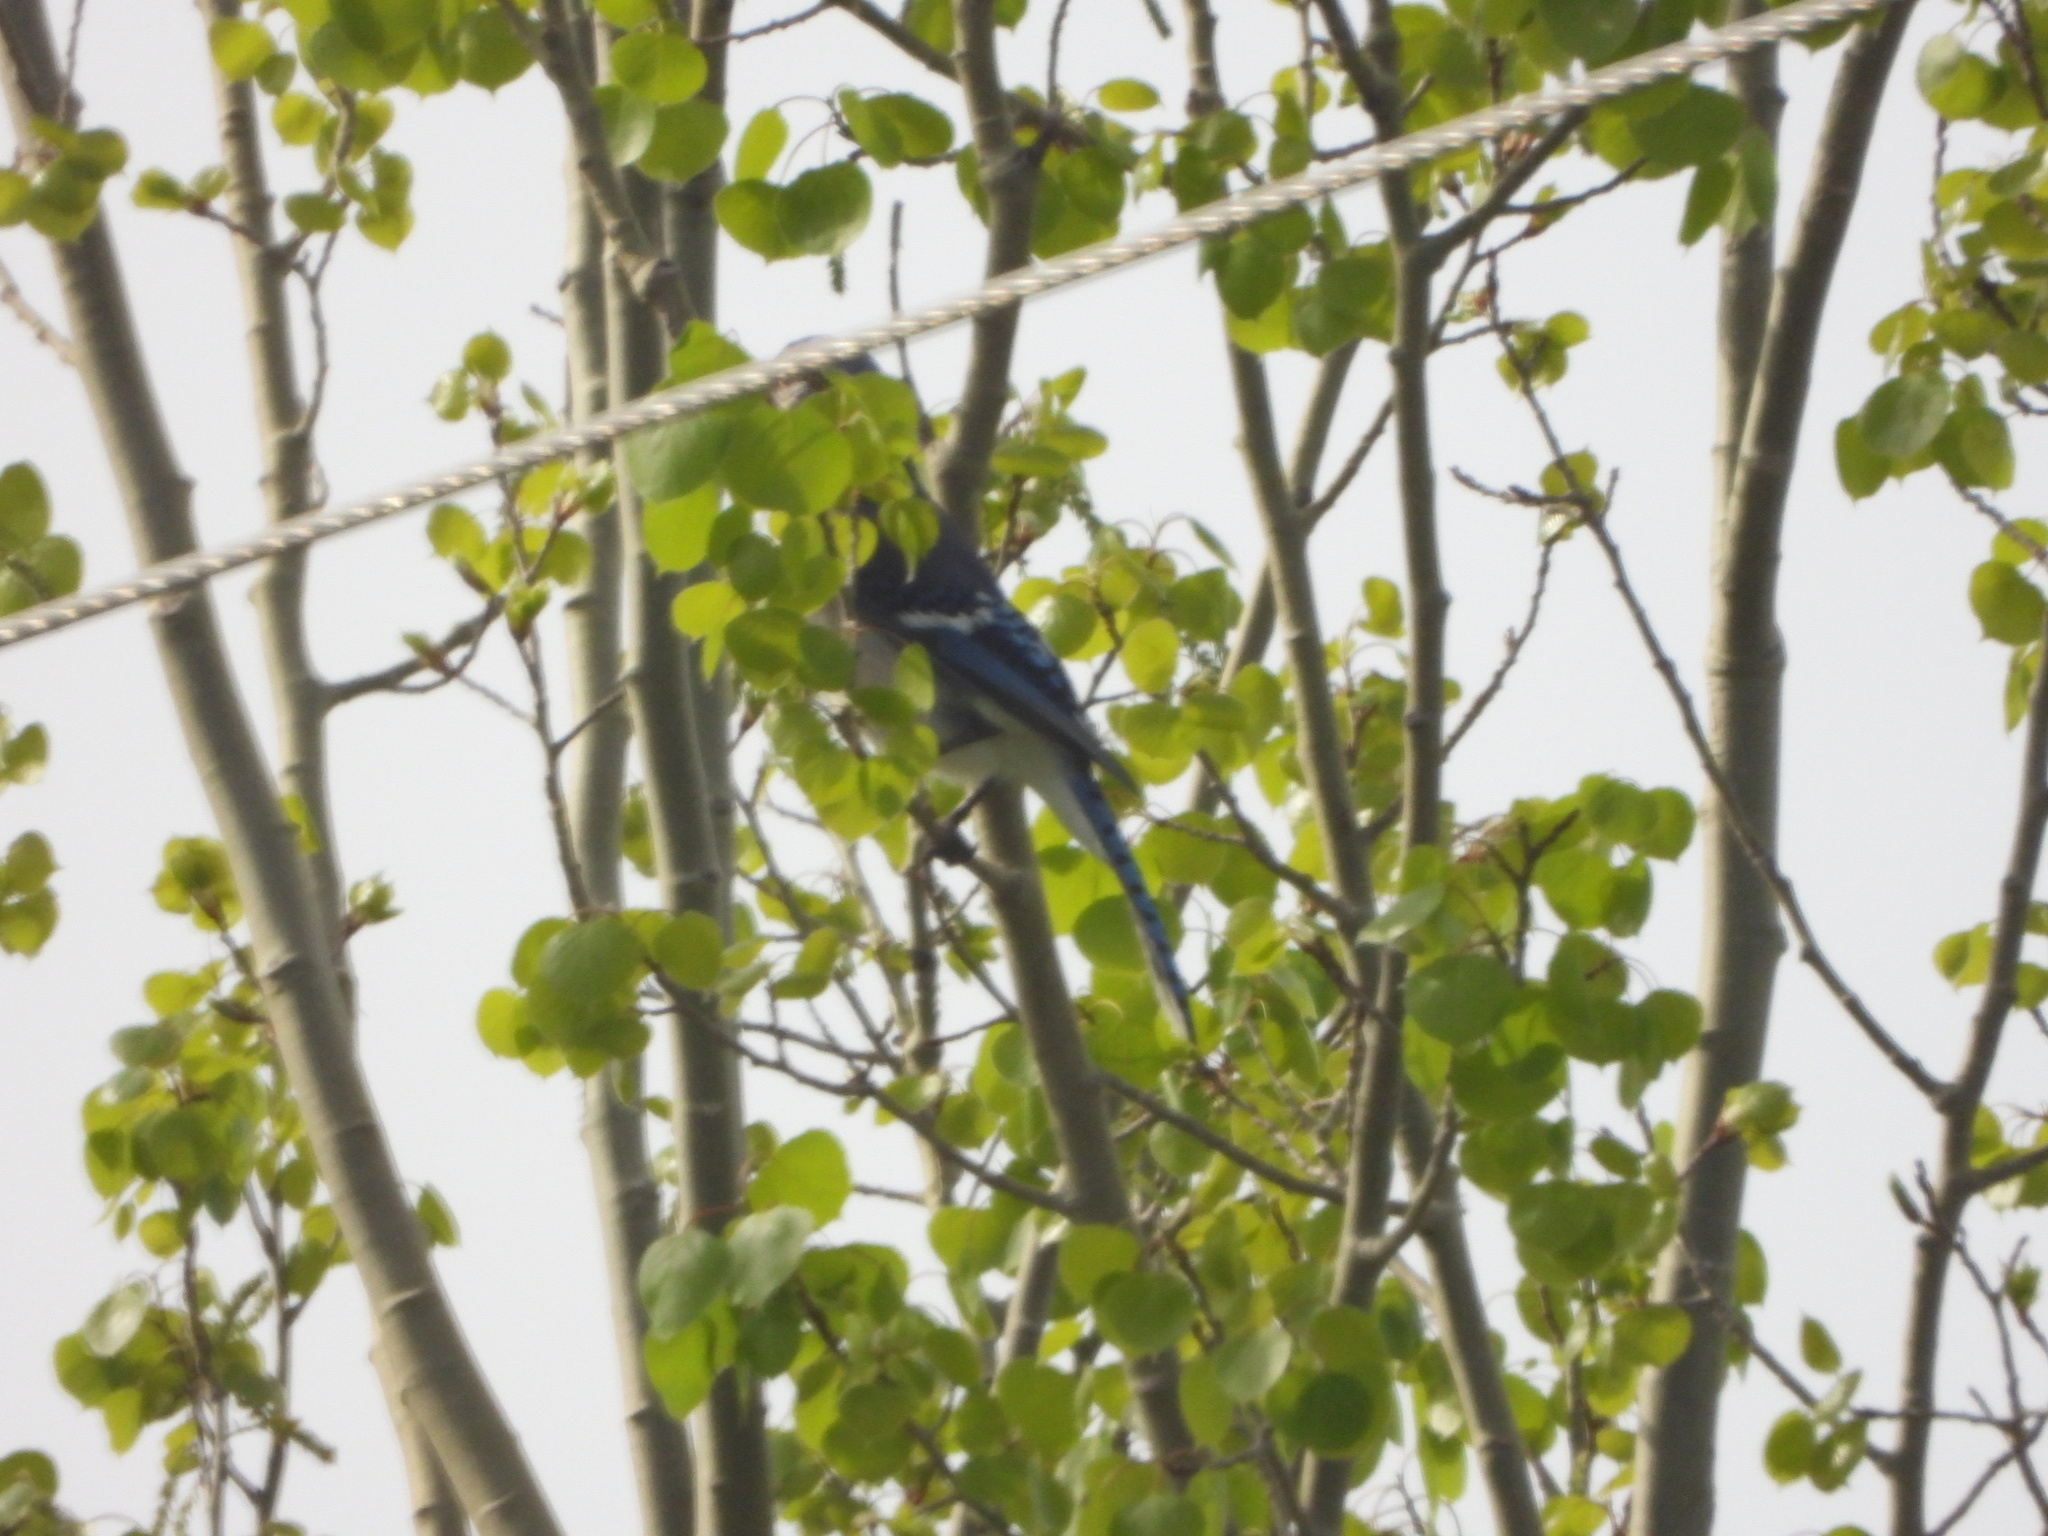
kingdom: Animalia
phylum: Chordata
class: Aves
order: Passeriformes
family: Corvidae
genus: Cyanocitta
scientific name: Cyanocitta cristata
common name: Blue jay
